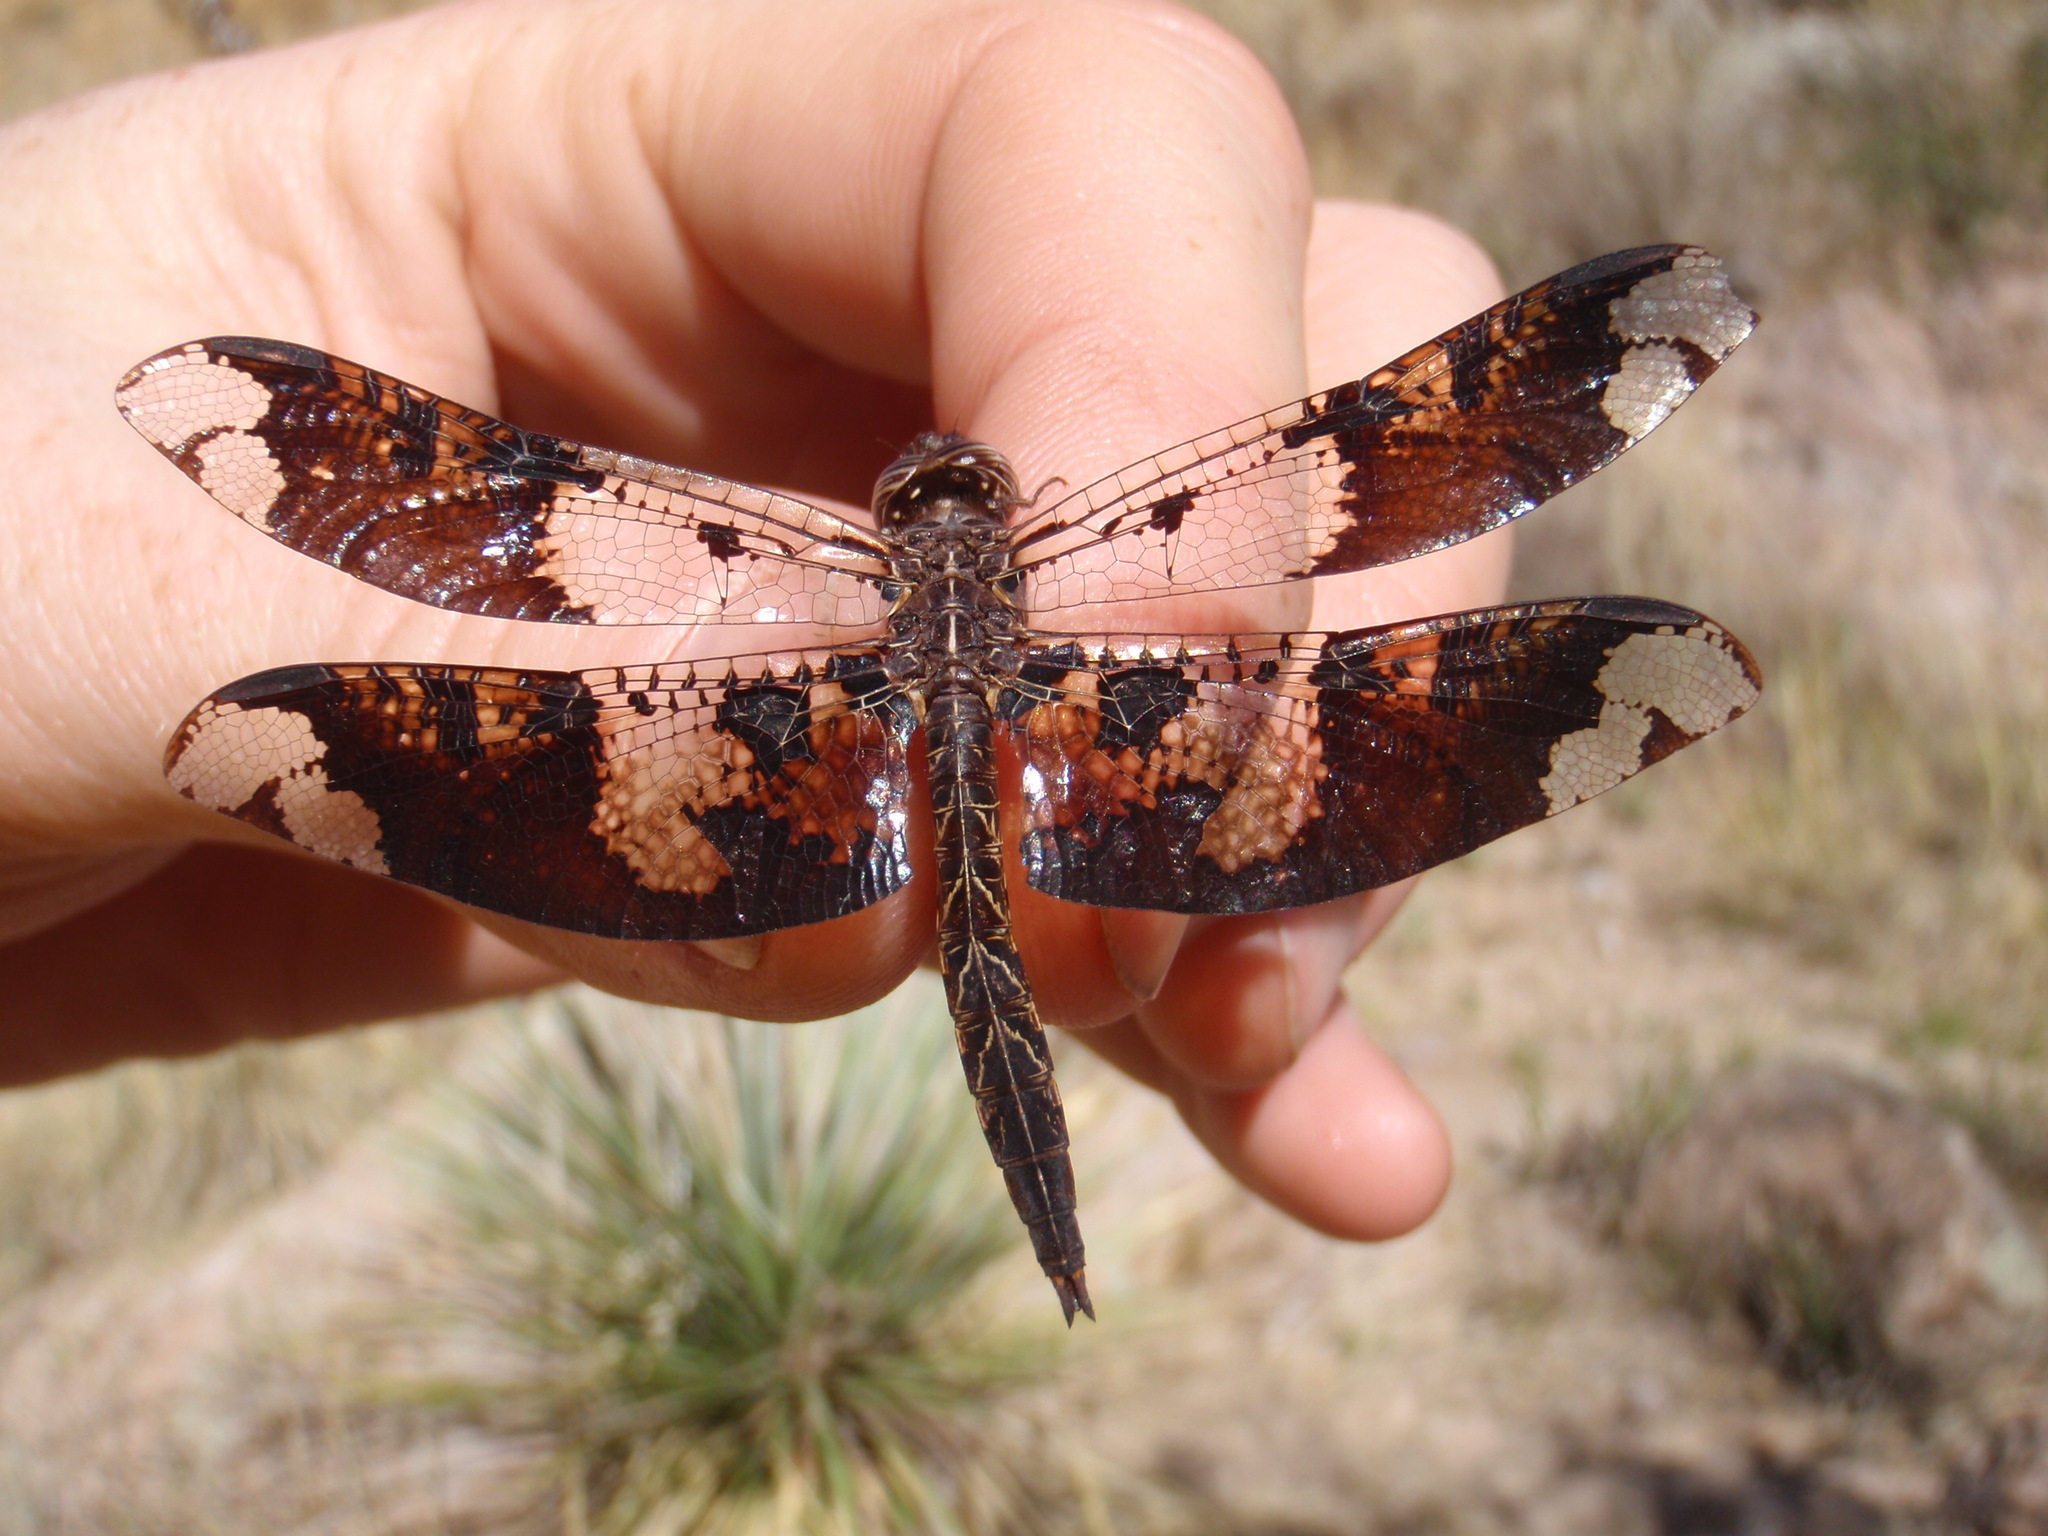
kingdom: Animalia
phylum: Arthropoda
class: Insecta
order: Odonata
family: Libellulidae
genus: Pseudoleon
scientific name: Pseudoleon superbus
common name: Filigree skimmer
